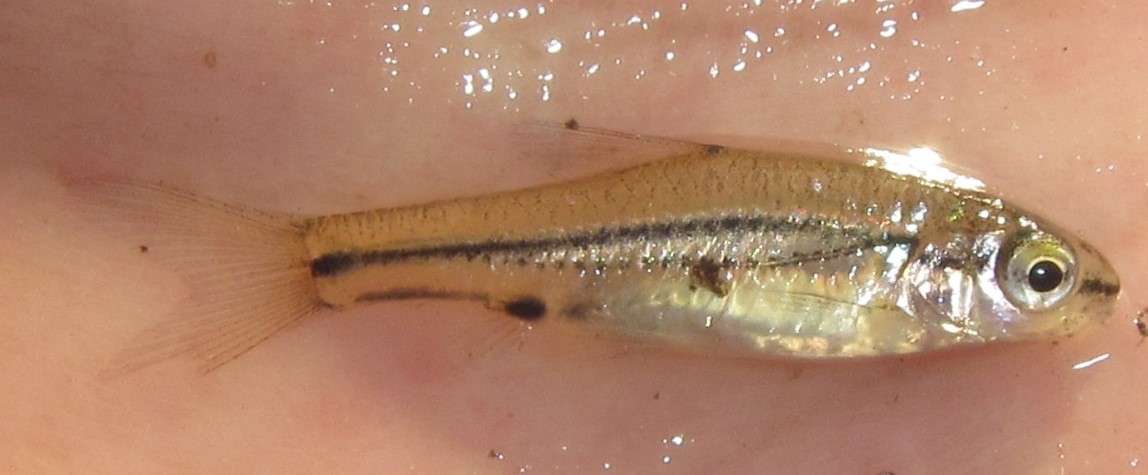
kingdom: Animalia
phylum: Chordata
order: Cypriniformes
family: Cyprinidae
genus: Enteromius
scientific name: Enteromius bifrenatus
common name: Hyphen barb
